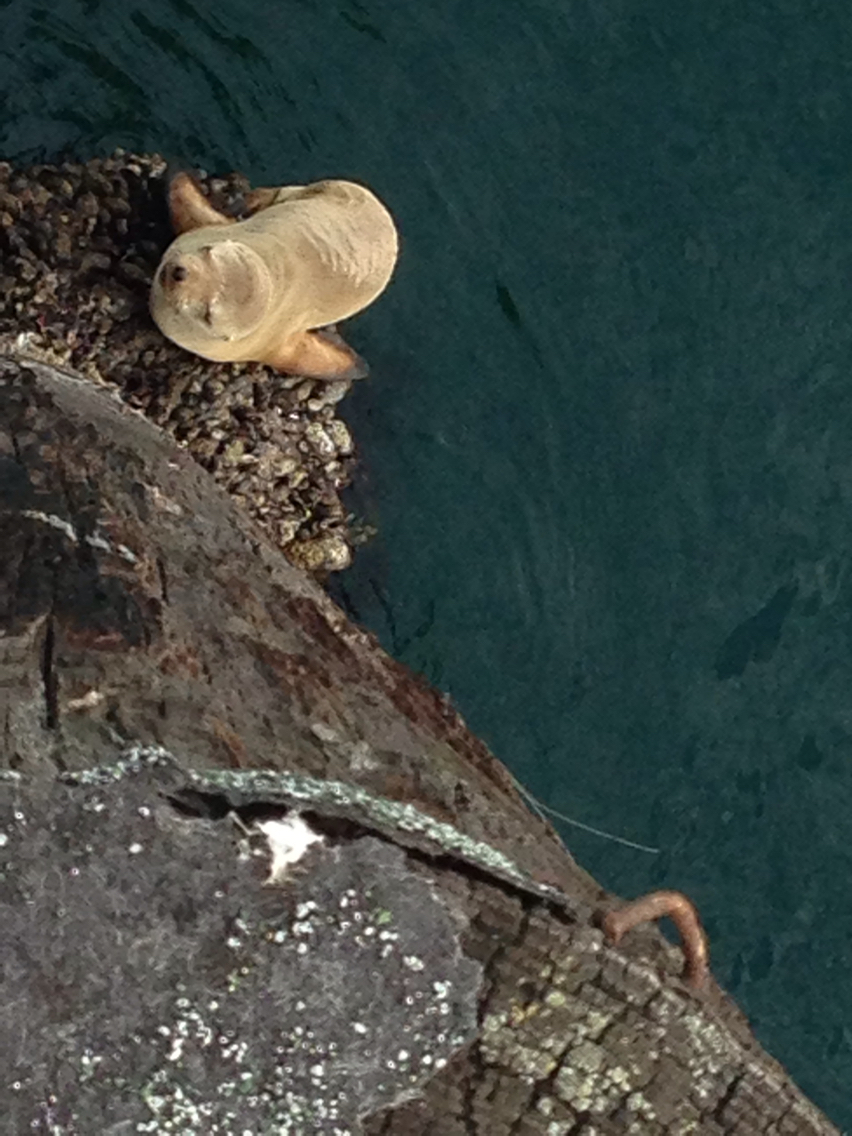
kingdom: Animalia
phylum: Chordata
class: Mammalia
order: Carnivora
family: Otariidae
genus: Zalophus
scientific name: Zalophus californianus
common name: California sea lion
